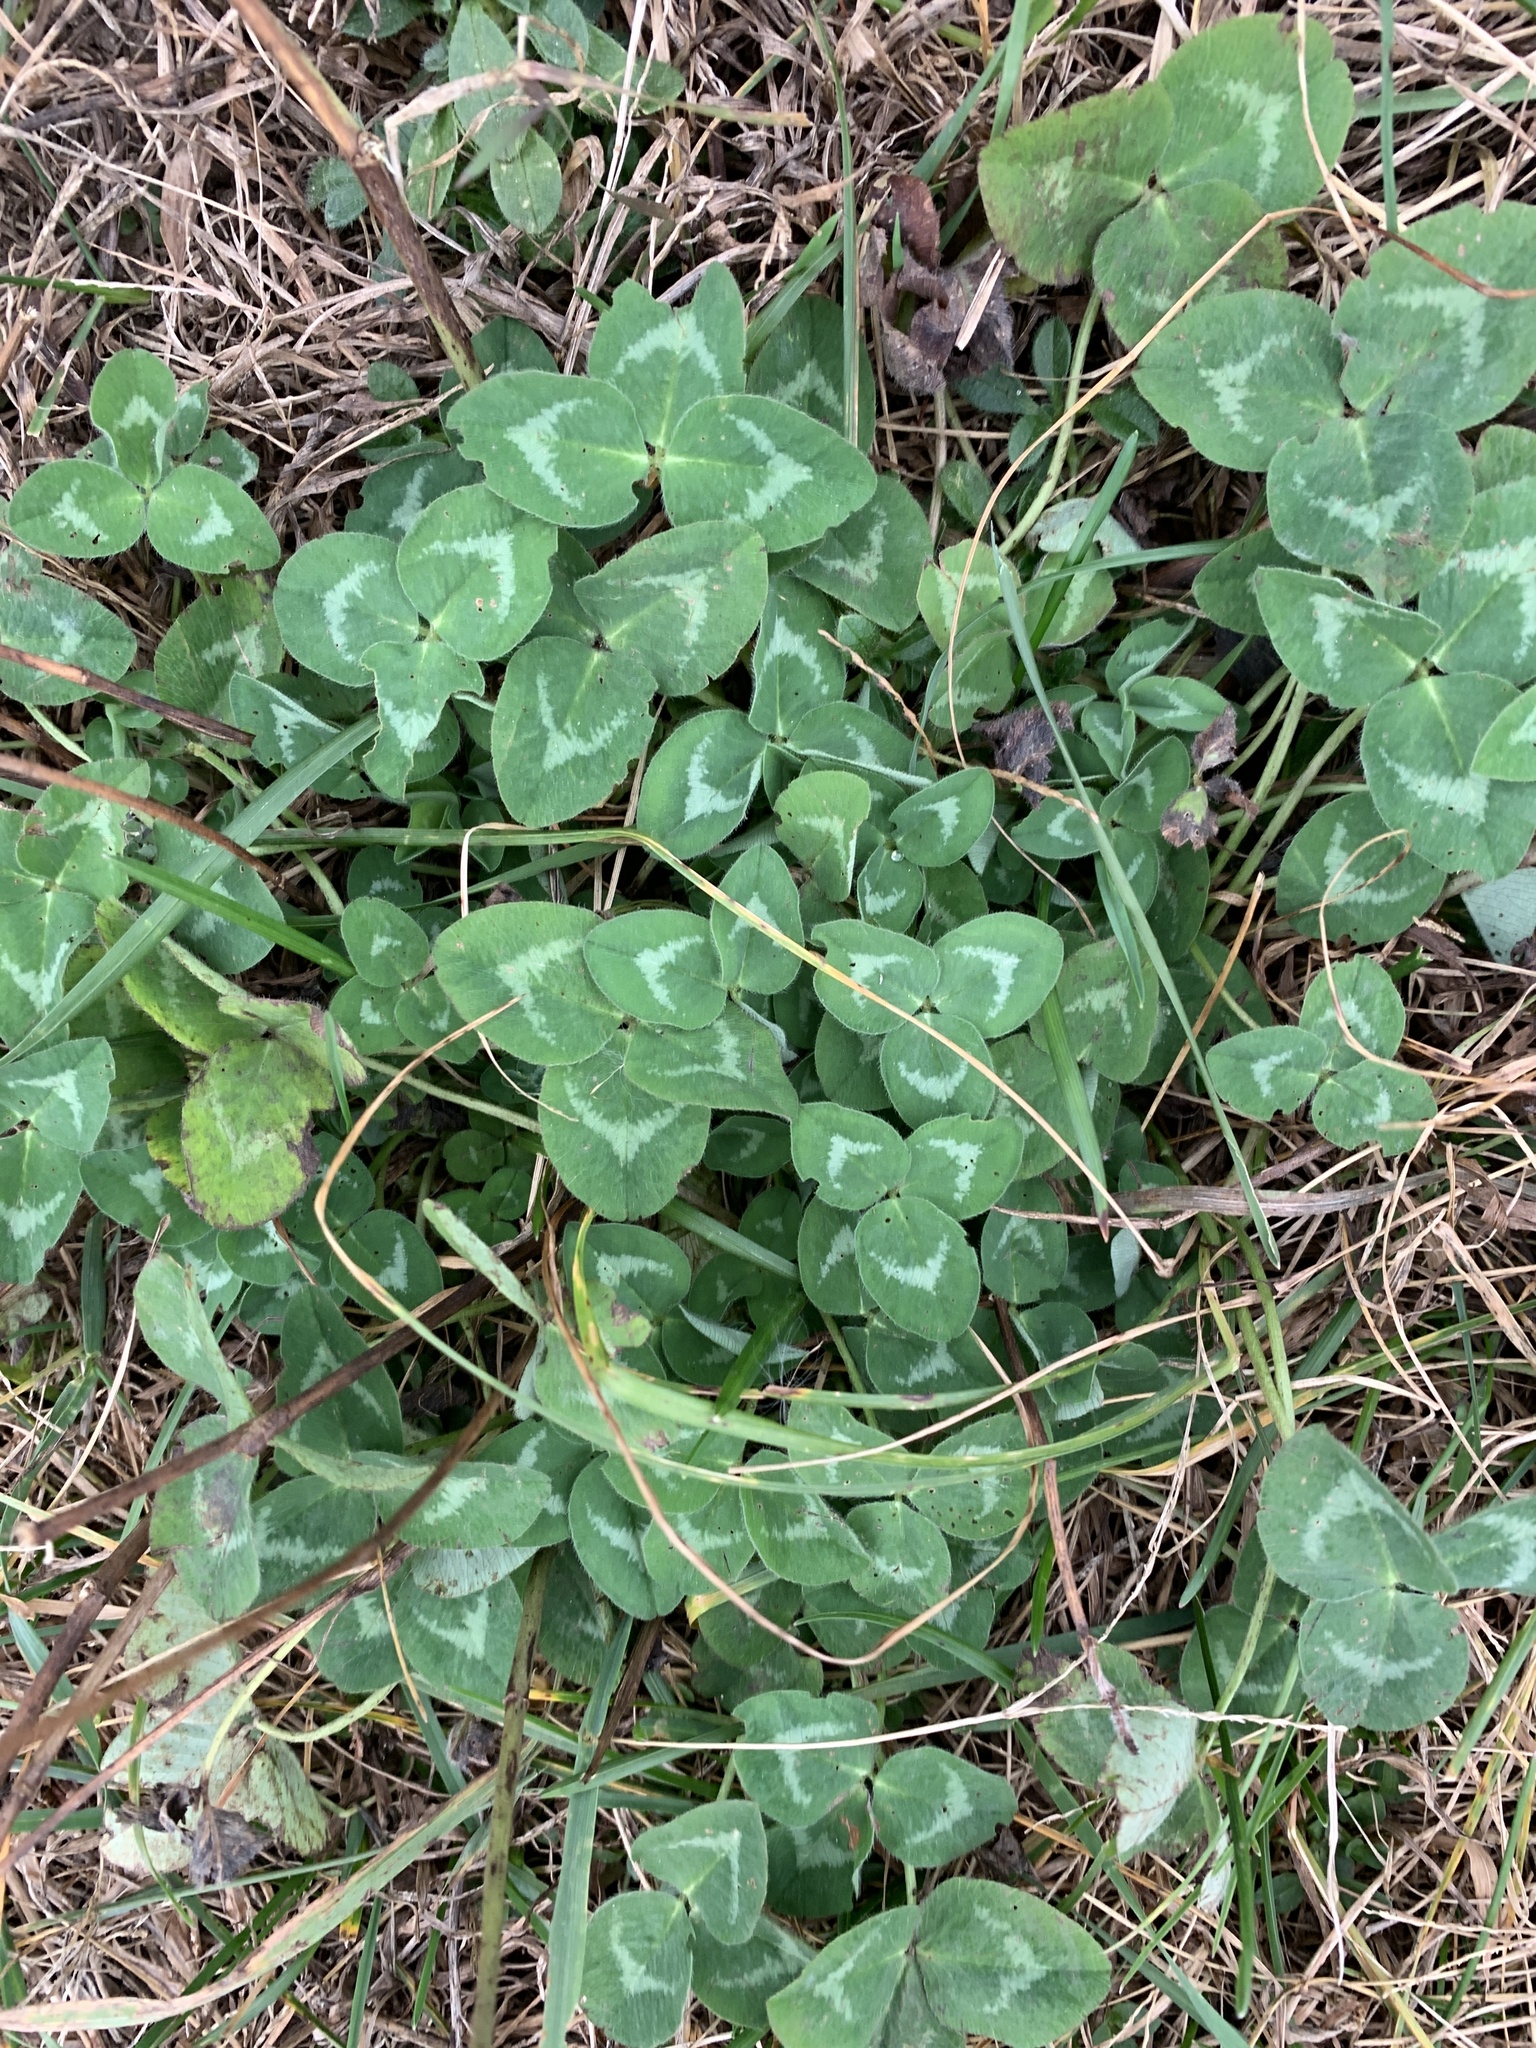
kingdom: Plantae
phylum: Tracheophyta
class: Magnoliopsida
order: Fabales
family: Fabaceae
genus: Trifolium
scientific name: Trifolium pratense
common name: Red clover
